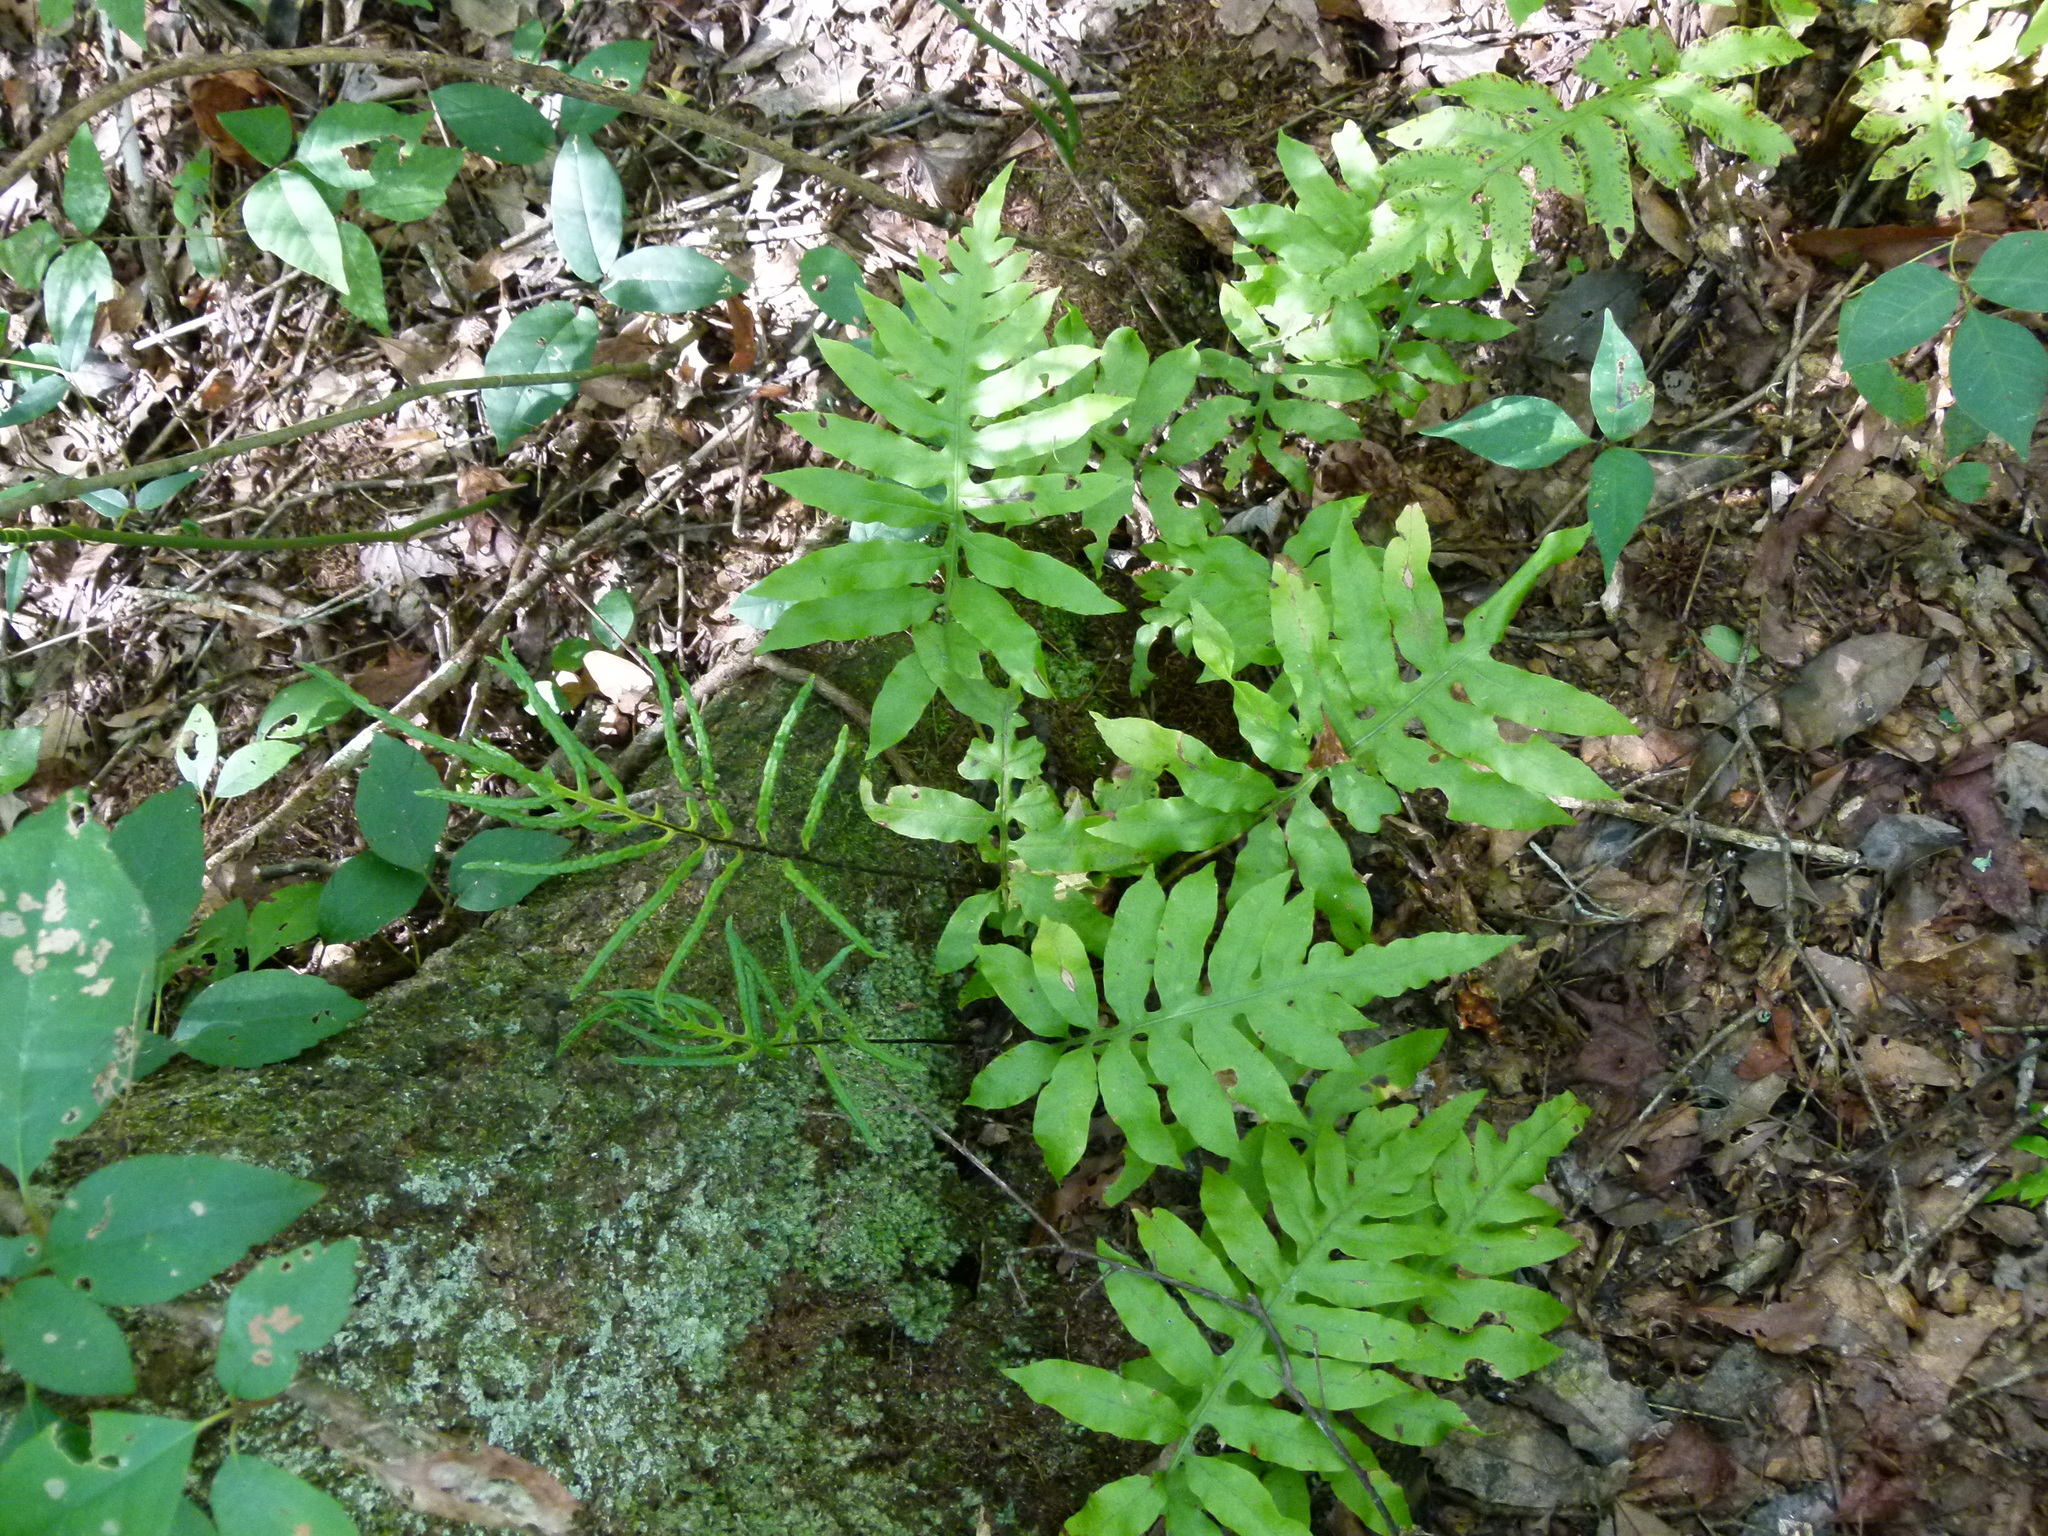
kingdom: Plantae
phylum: Tracheophyta
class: Polypodiopsida
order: Polypodiales
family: Blechnaceae
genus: Lorinseria
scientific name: Lorinseria areolata
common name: Dwarf chain fern
